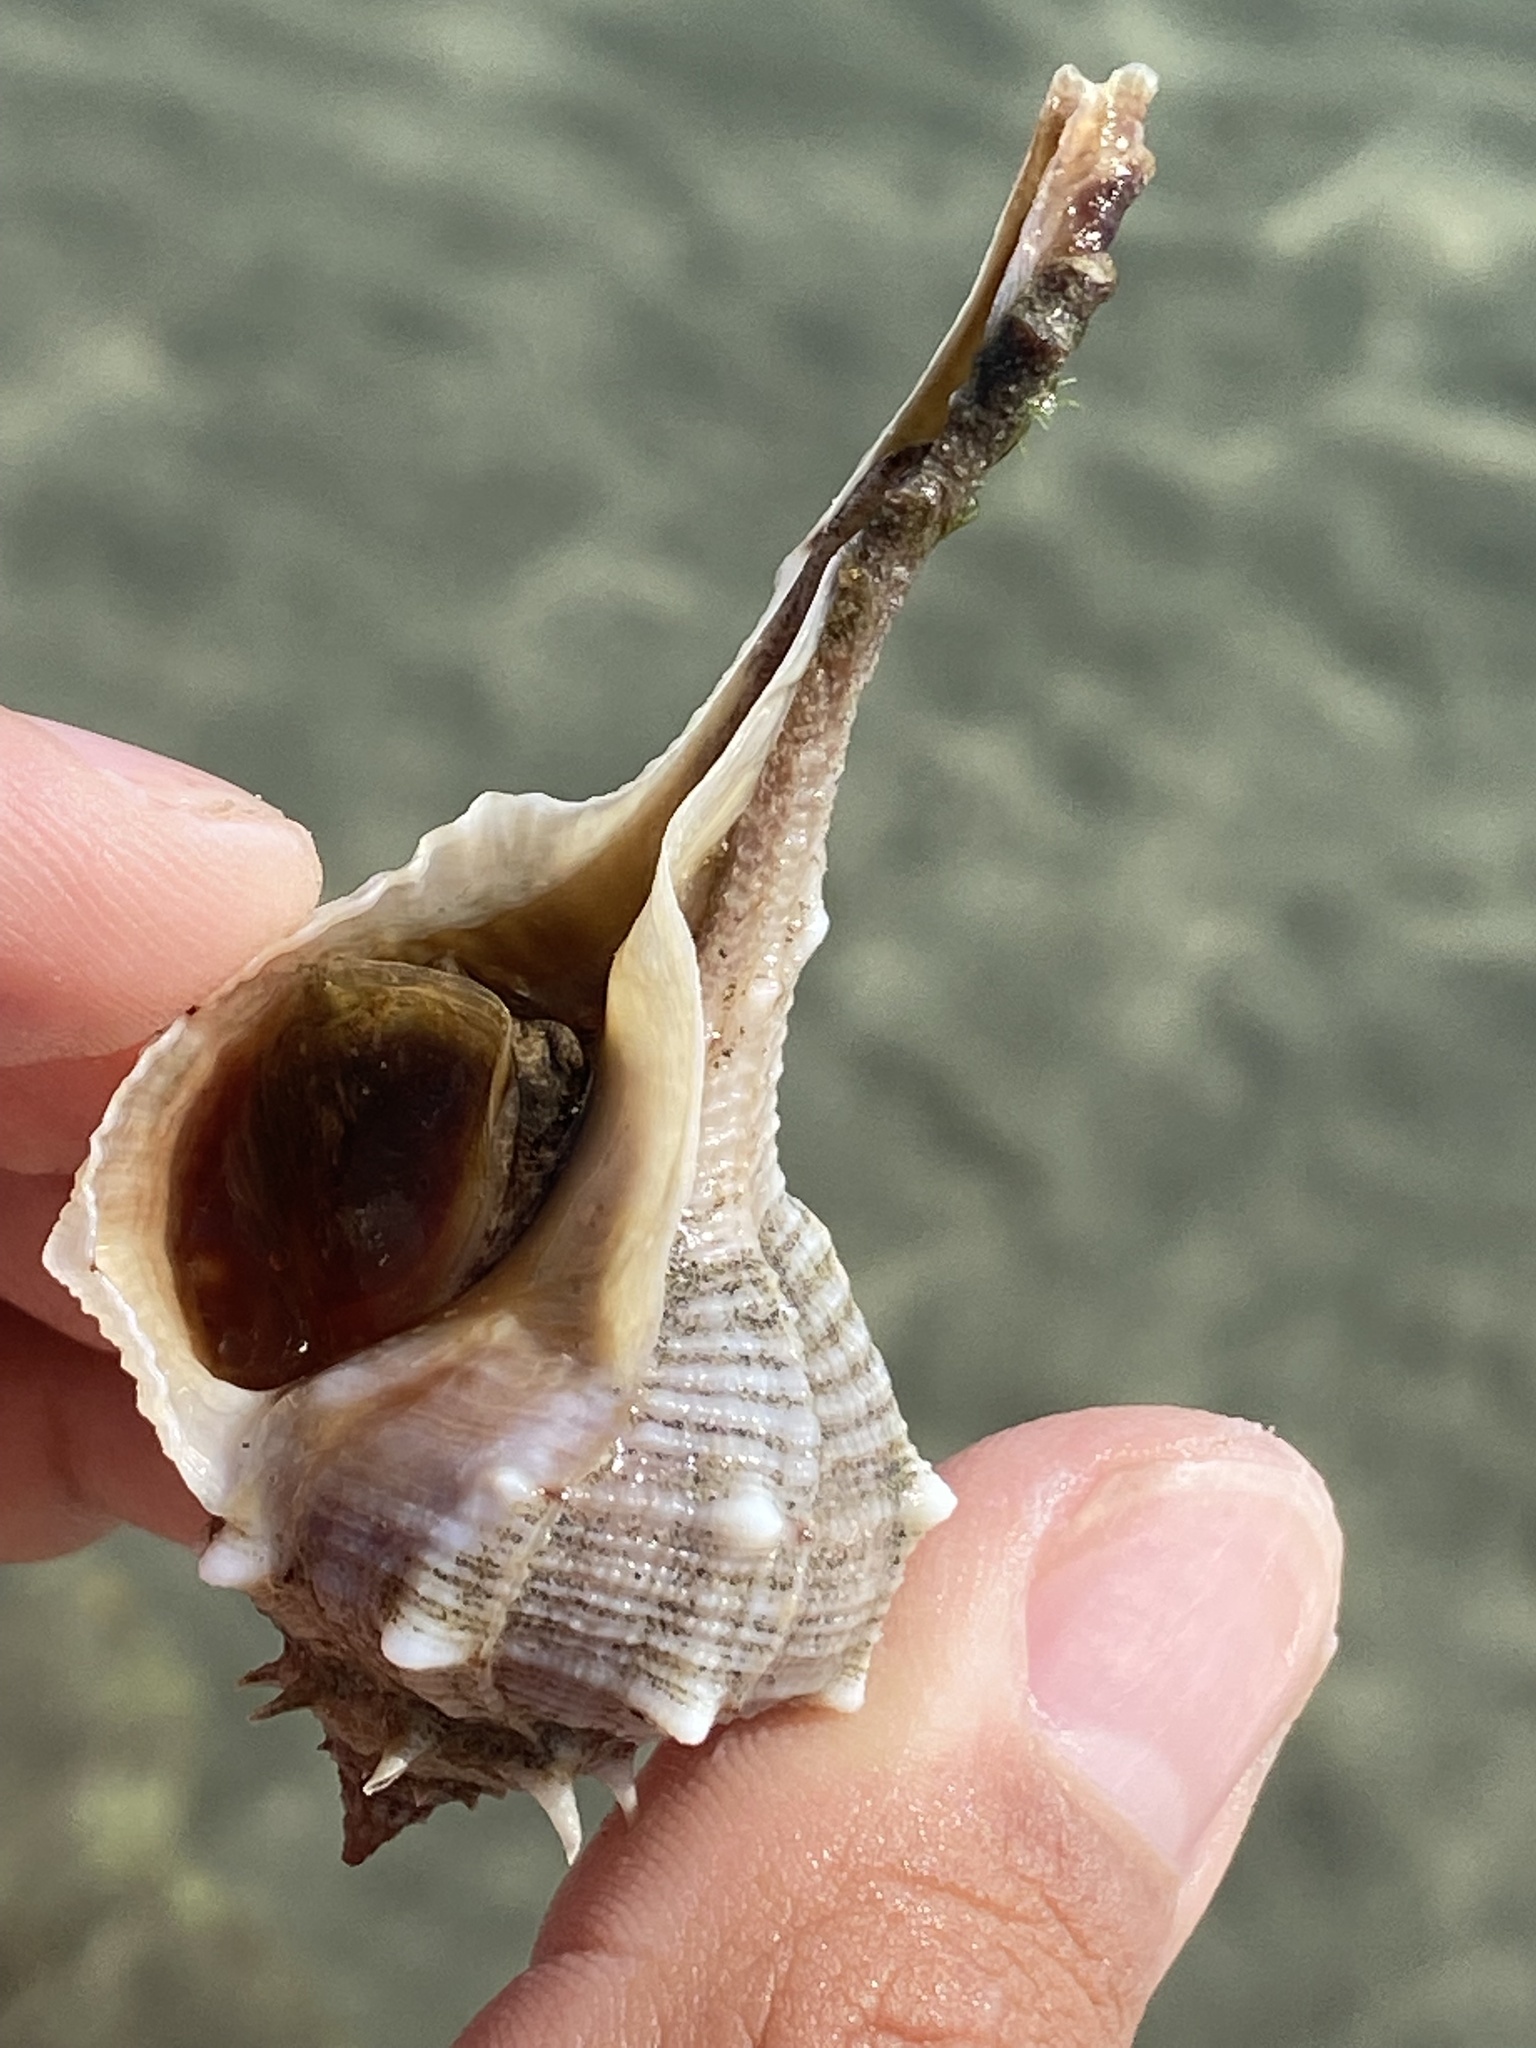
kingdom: Animalia
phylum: Mollusca
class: Gastropoda
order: Neogastropoda
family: Muricidae
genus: Bolinus
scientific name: Bolinus brandaris
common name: Dye murex
